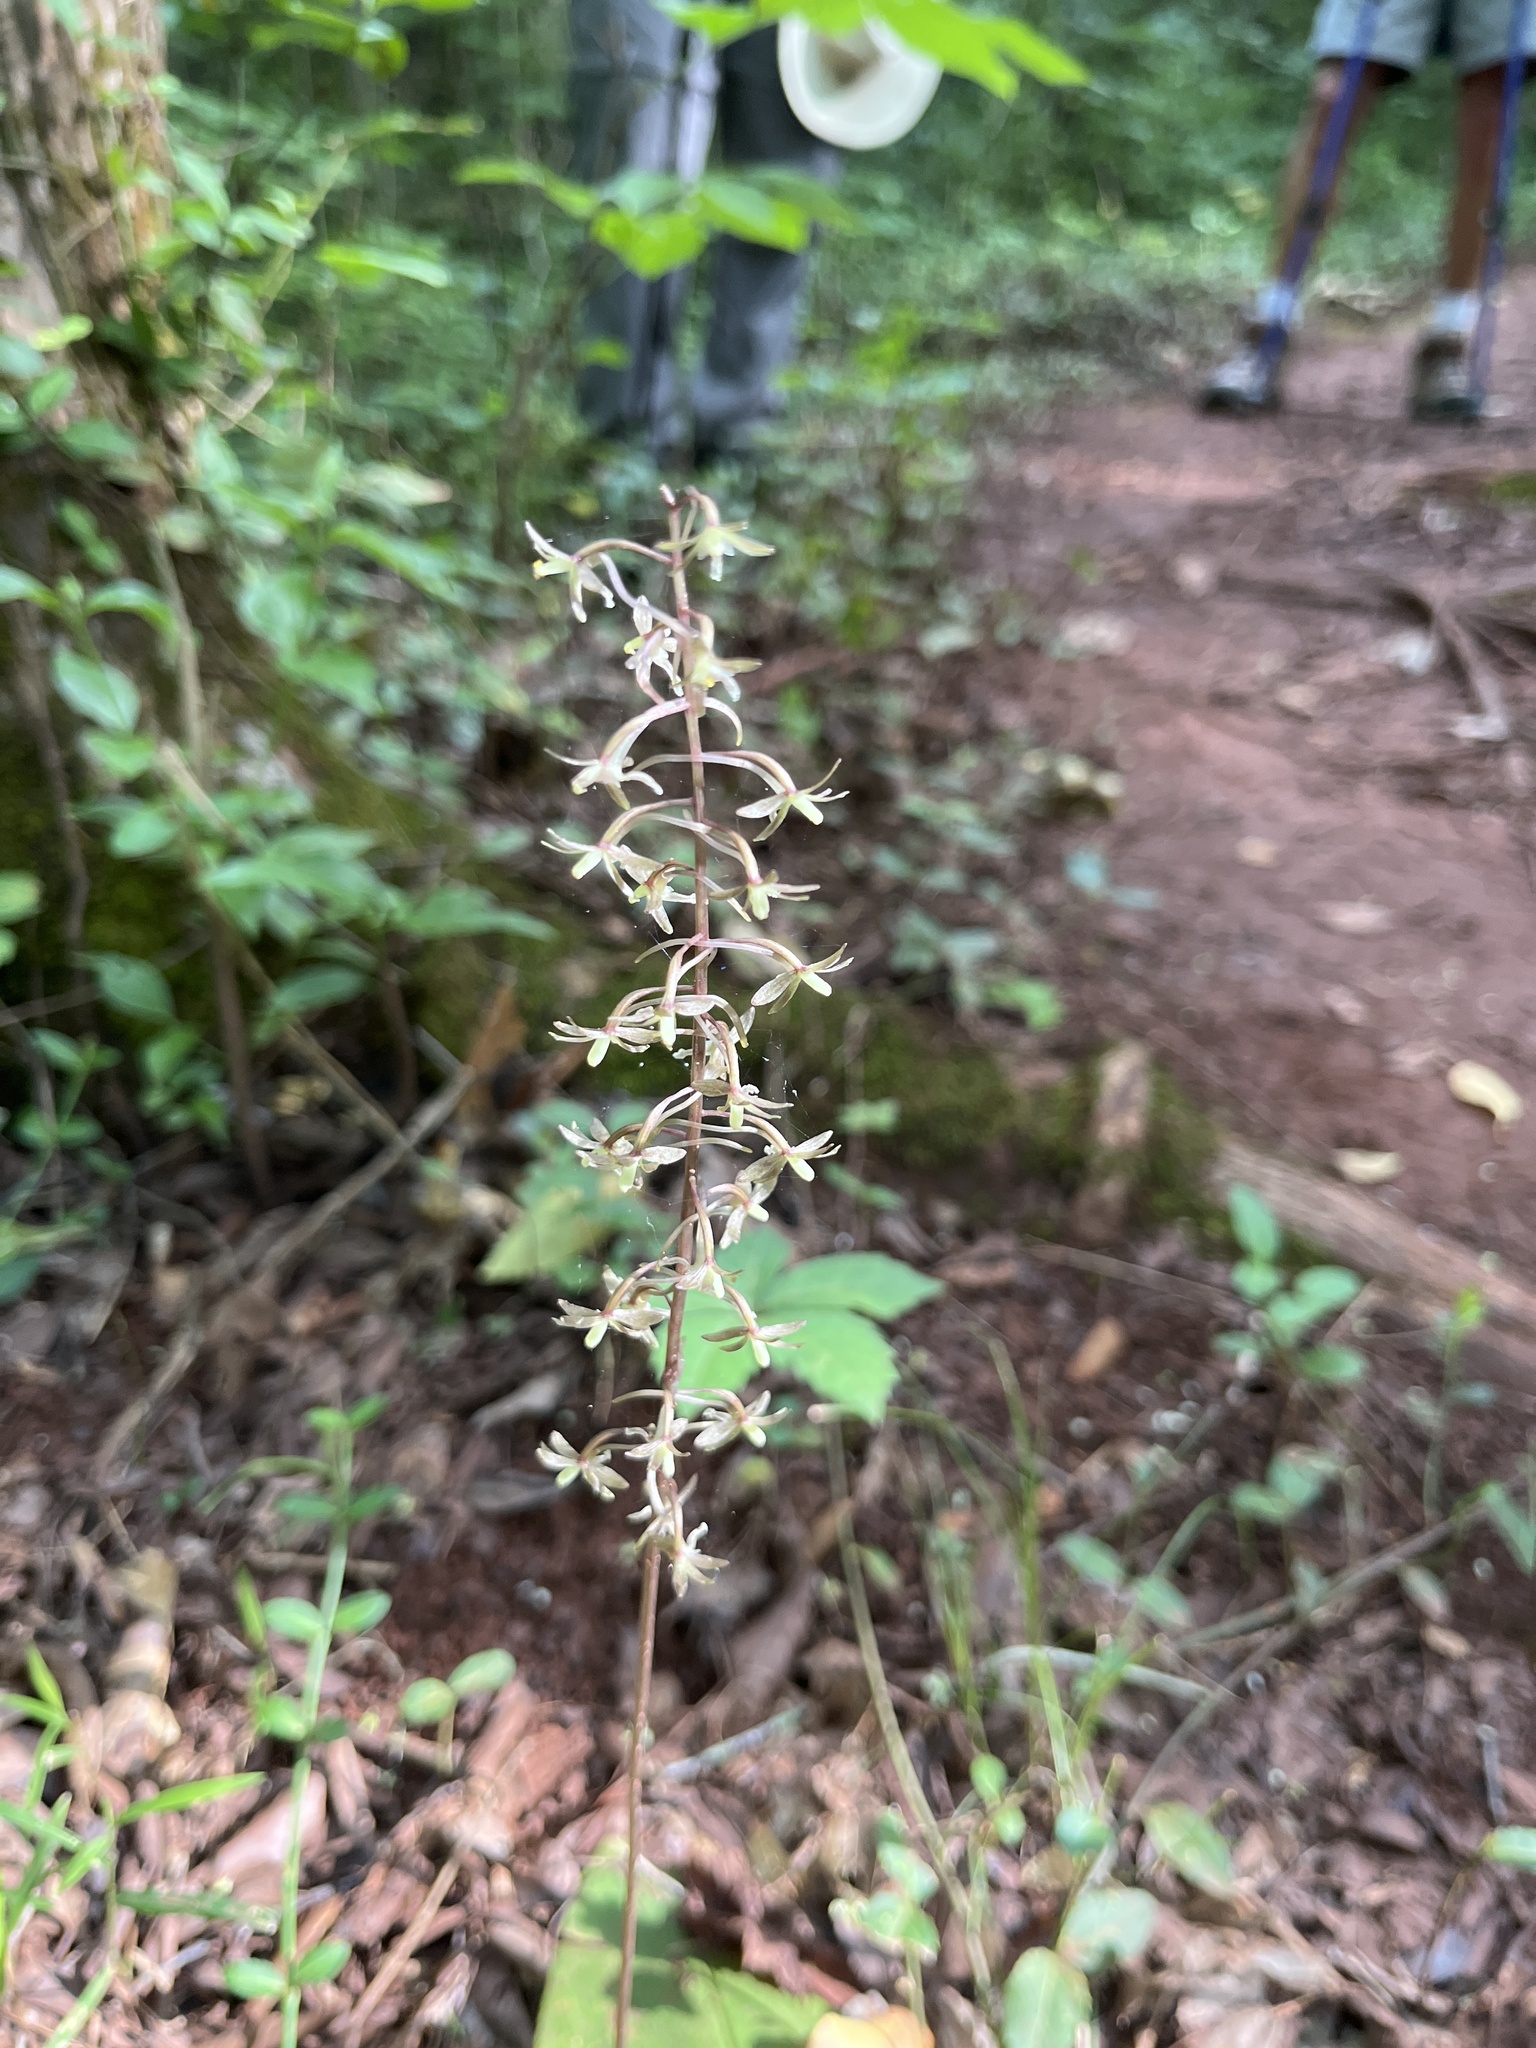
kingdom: Plantae
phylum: Tracheophyta
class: Liliopsida
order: Asparagales
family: Orchidaceae
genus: Tipularia
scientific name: Tipularia discolor
